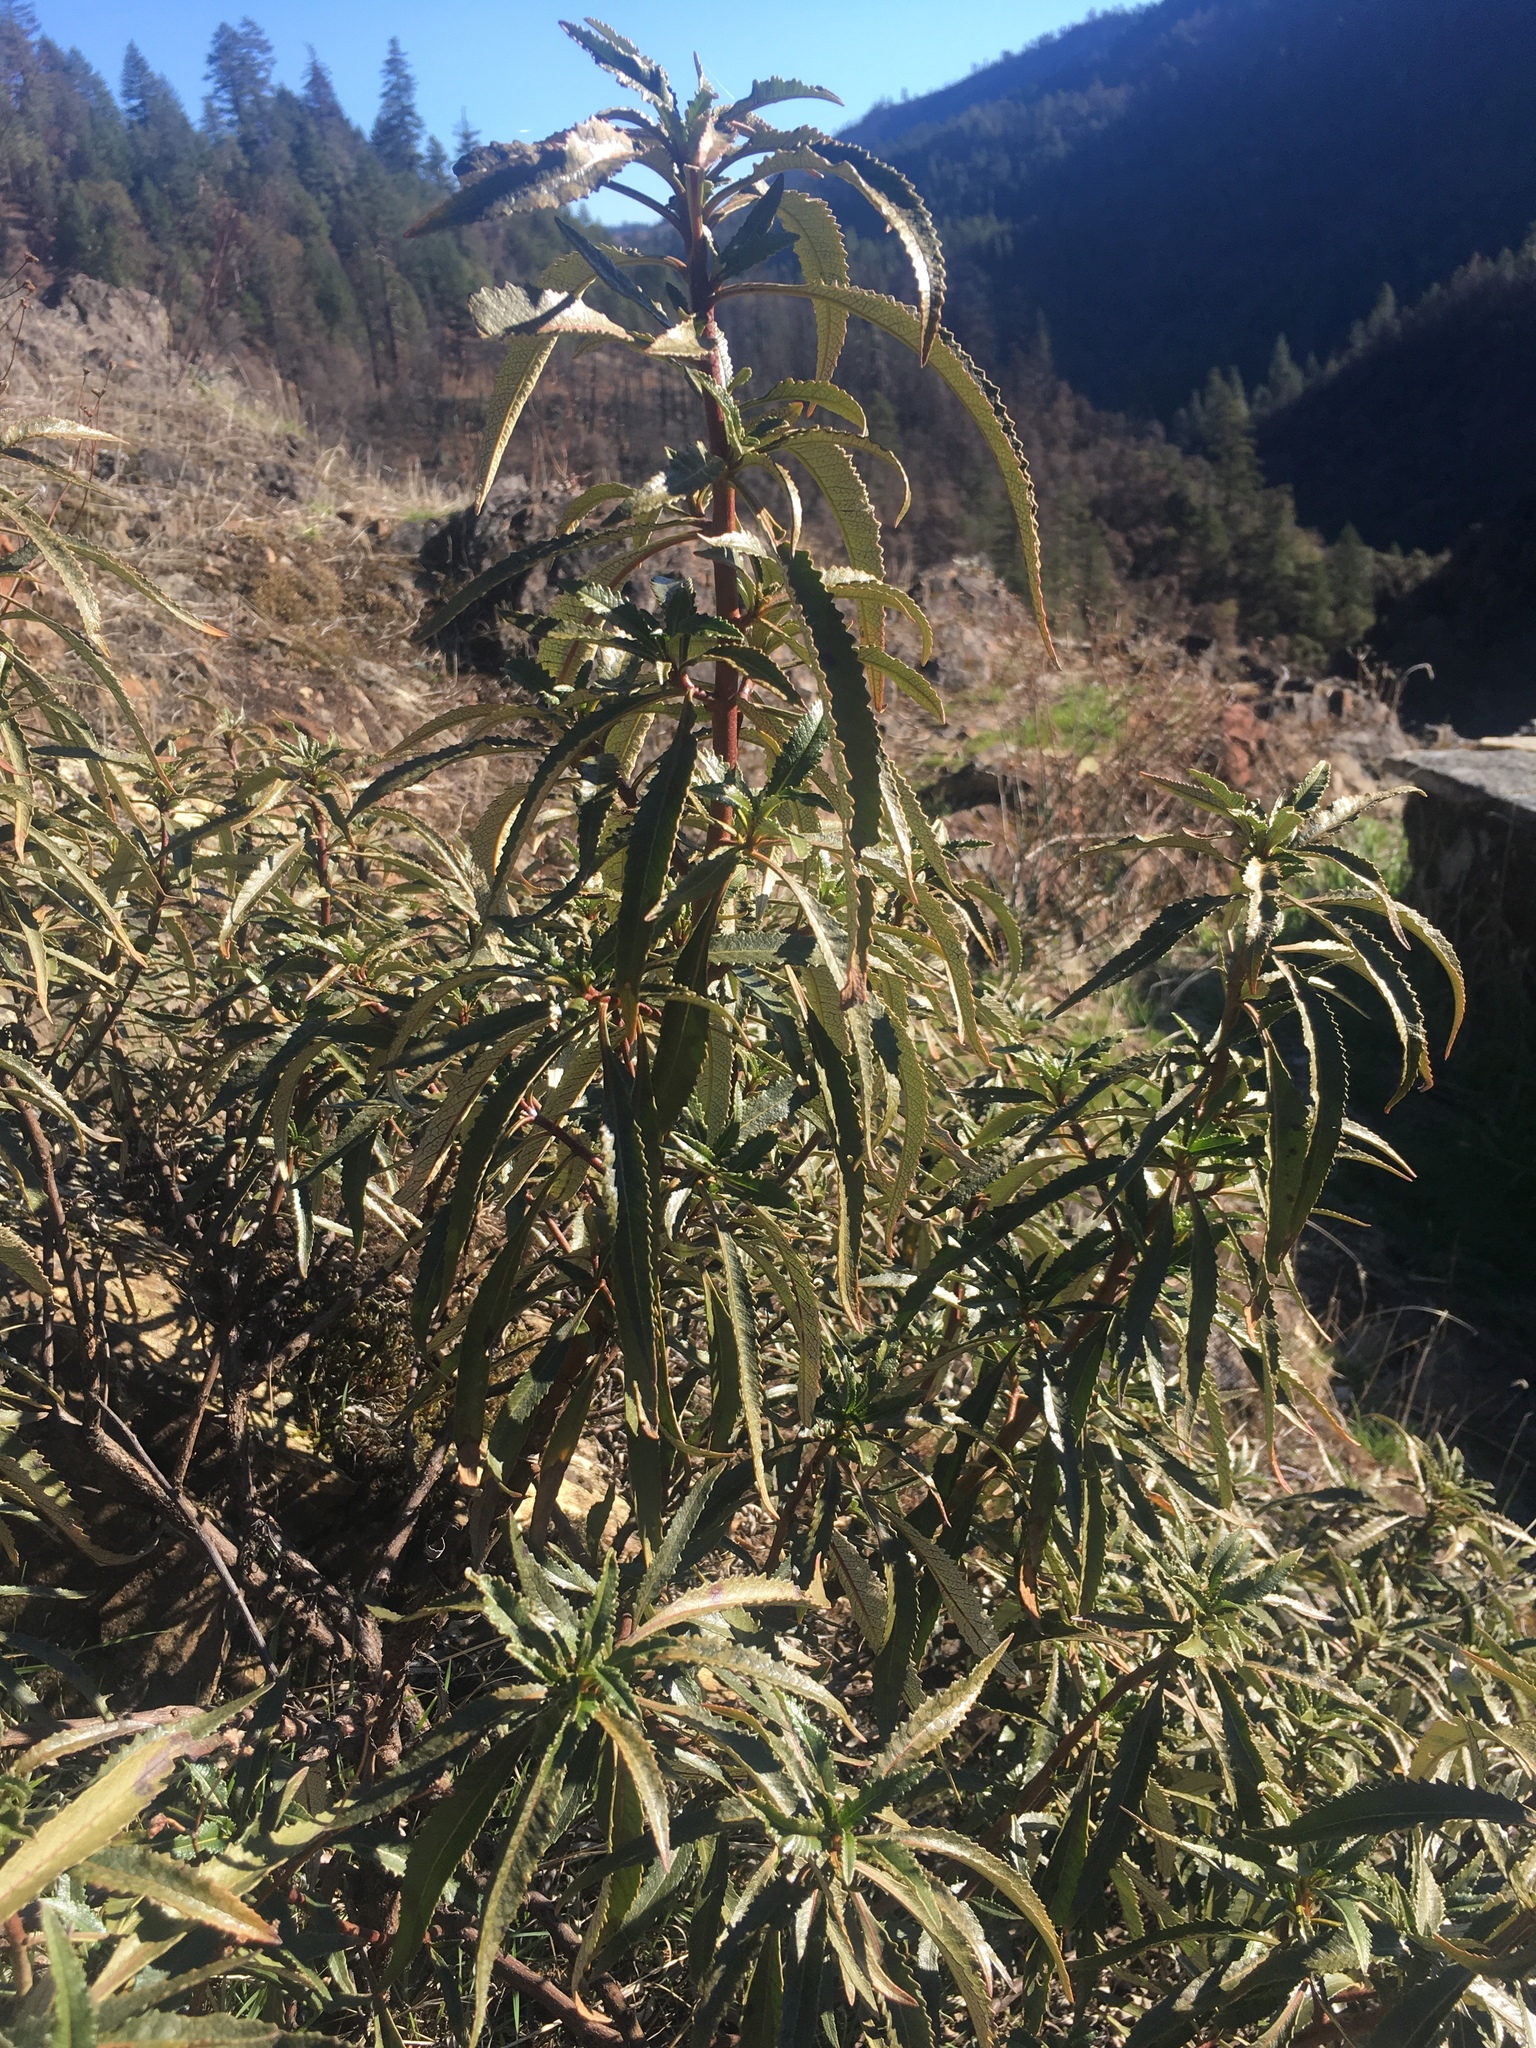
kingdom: Plantae
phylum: Tracheophyta
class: Magnoliopsida
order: Boraginales
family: Namaceae
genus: Eriodictyon
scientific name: Eriodictyon californicum
